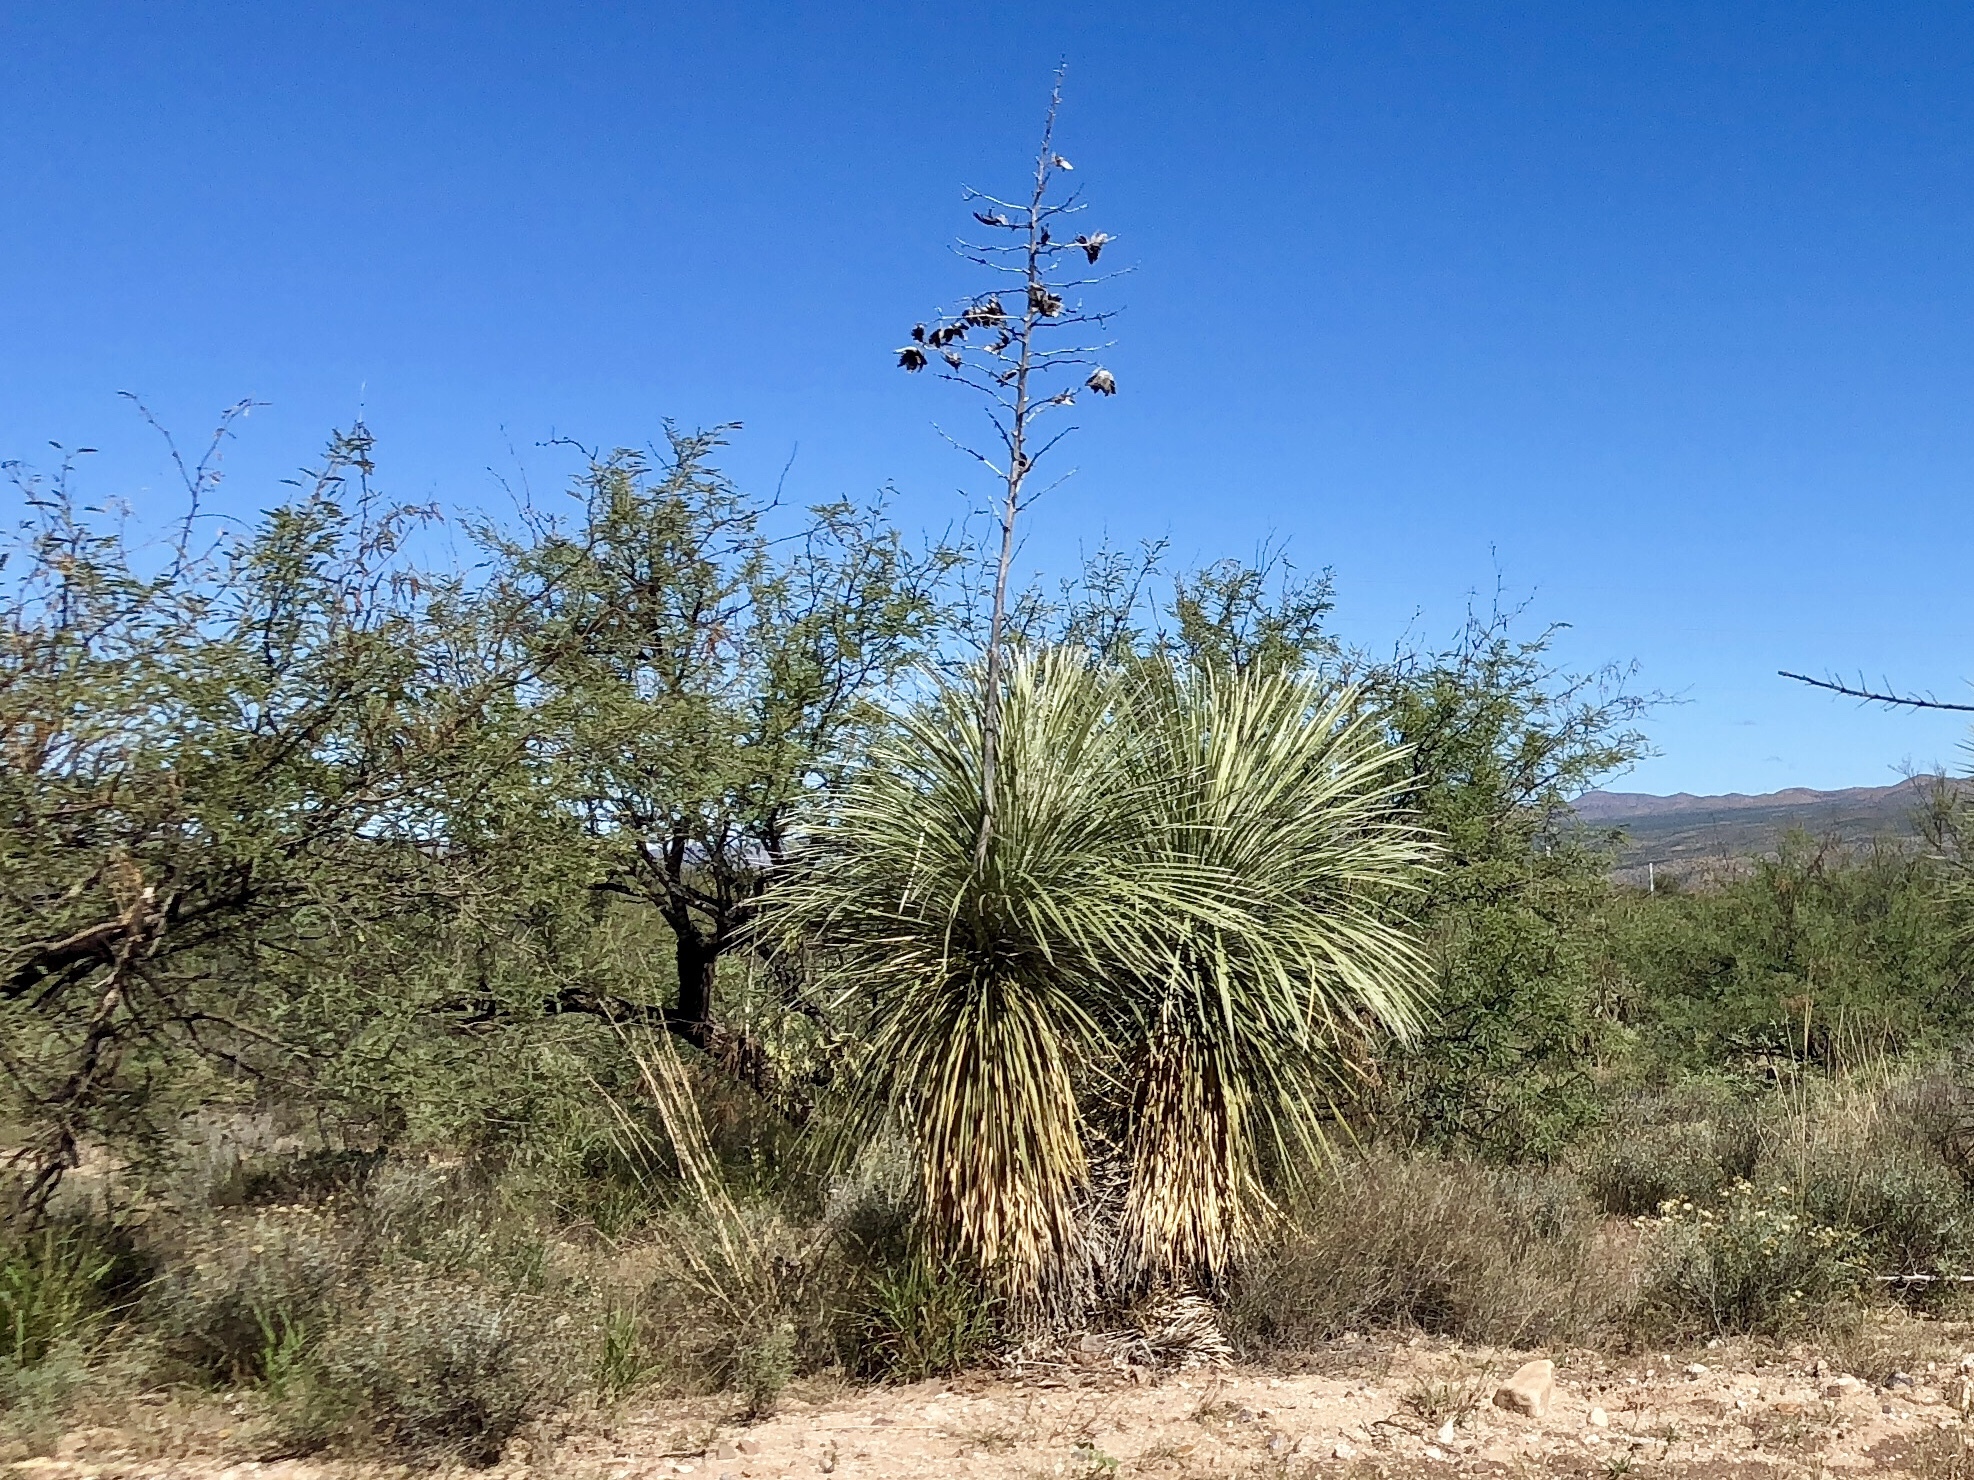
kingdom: Plantae
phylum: Tracheophyta
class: Liliopsida
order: Asparagales
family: Asparagaceae
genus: Yucca
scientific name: Yucca elata
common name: Palmella
